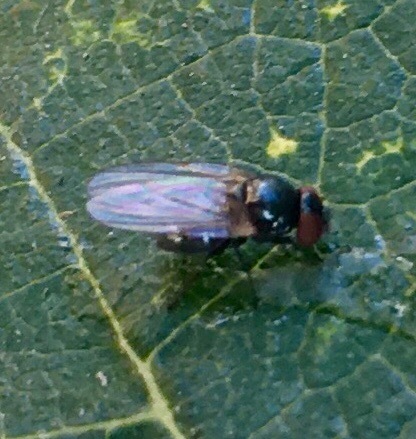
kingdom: Animalia
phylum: Arthropoda
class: Insecta
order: Diptera
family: Lonchaeidae
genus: Silba
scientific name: Silba adipata
